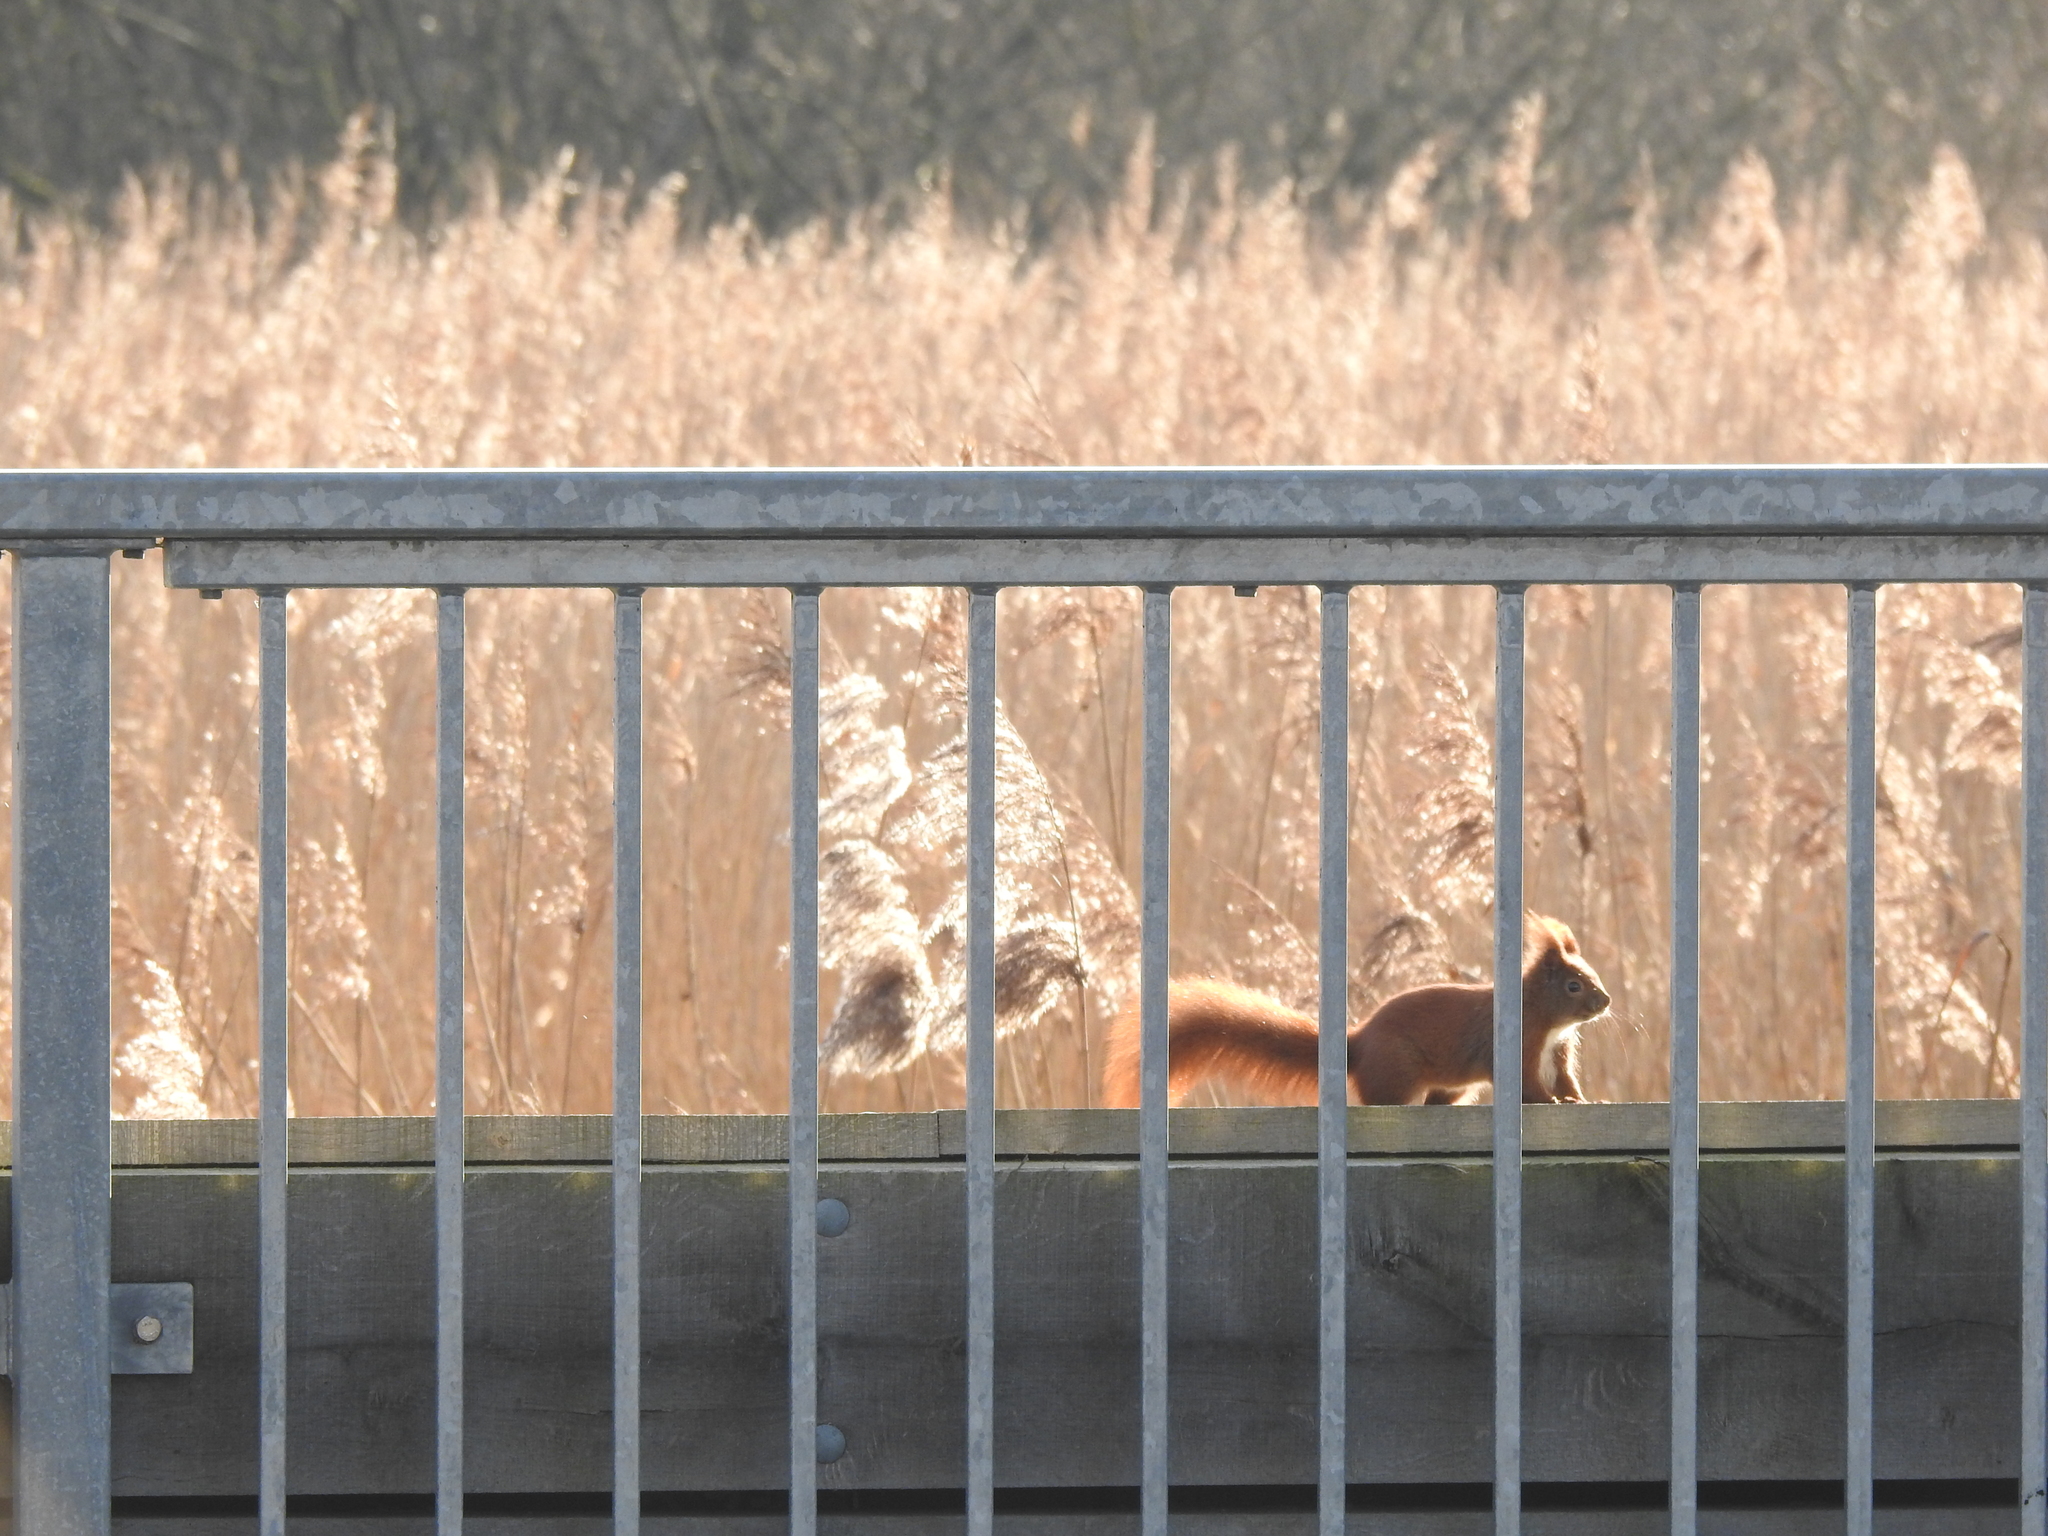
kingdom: Animalia
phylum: Chordata
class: Mammalia
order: Rodentia
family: Sciuridae
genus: Sciurus
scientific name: Sciurus vulgaris
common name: Eurasian red squirrel
